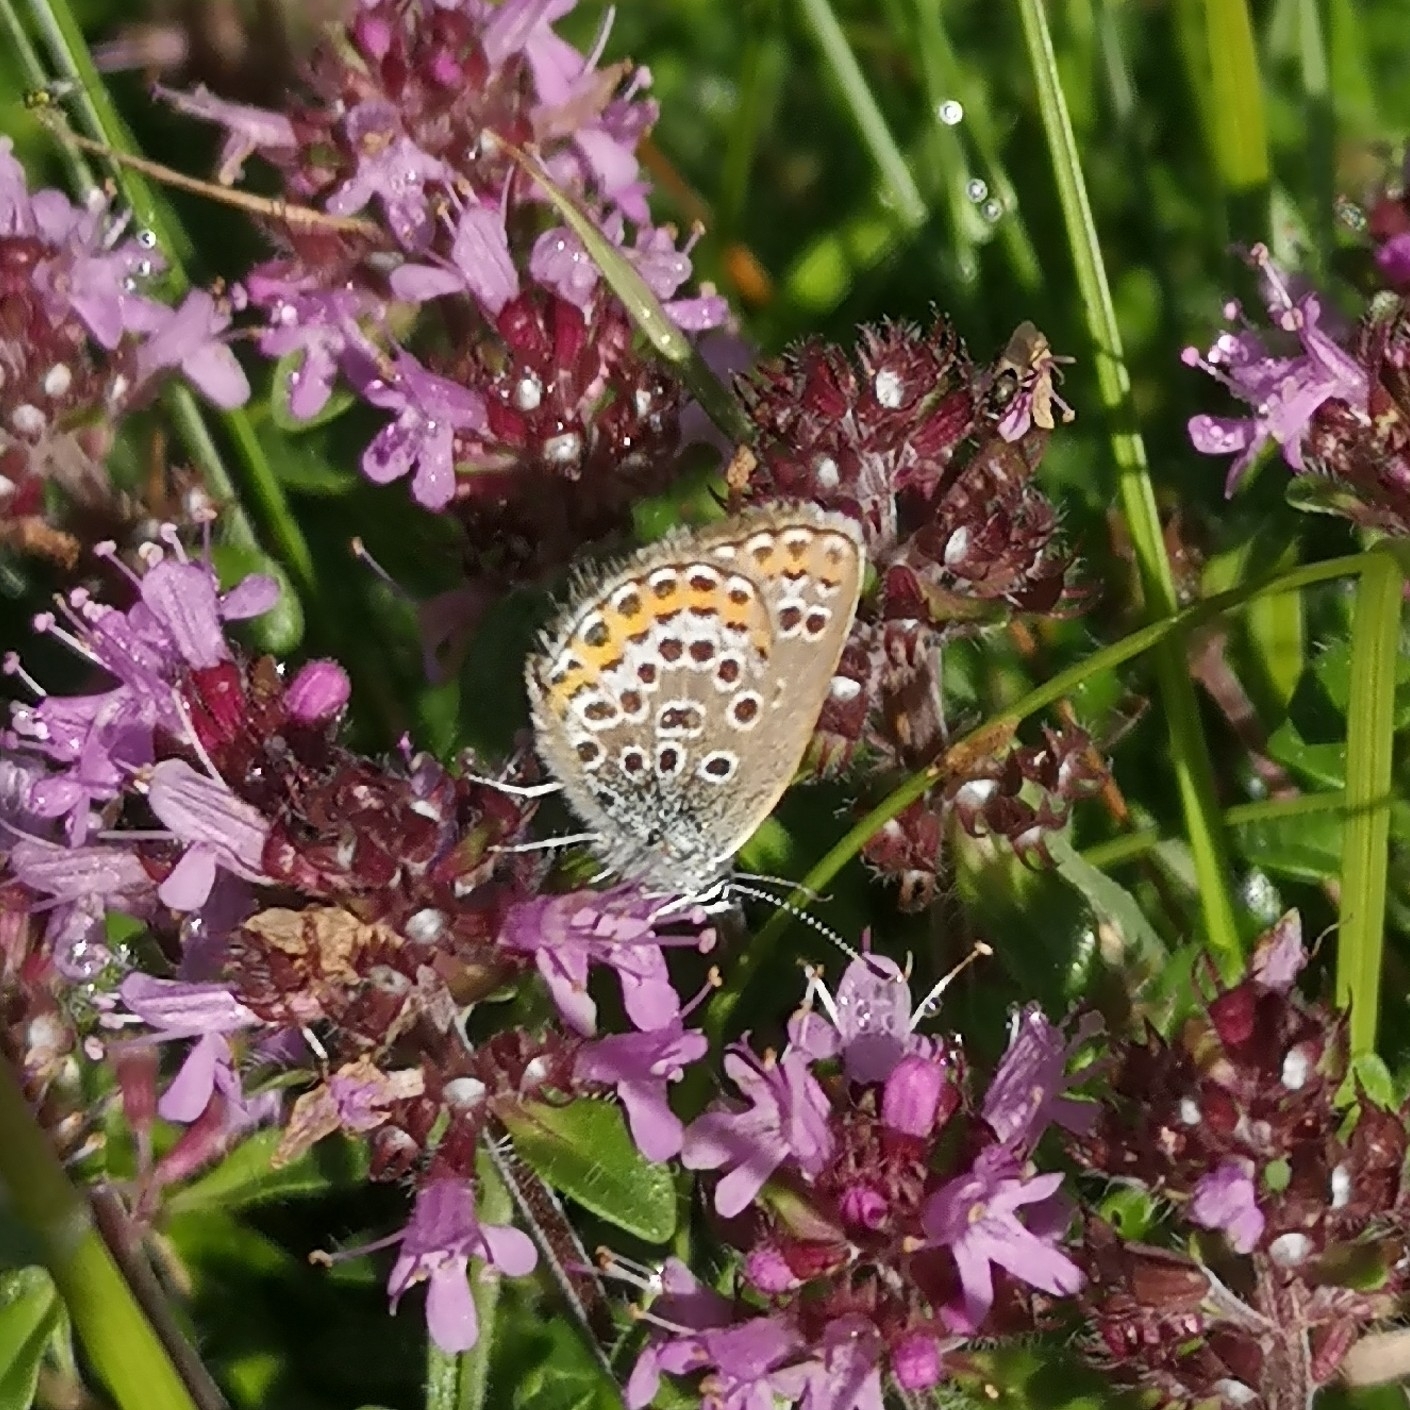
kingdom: Animalia
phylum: Arthropoda
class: Insecta
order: Lepidoptera
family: Lycaenidae
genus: Plebejus
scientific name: Plebejus argus
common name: Silver-studded blue
